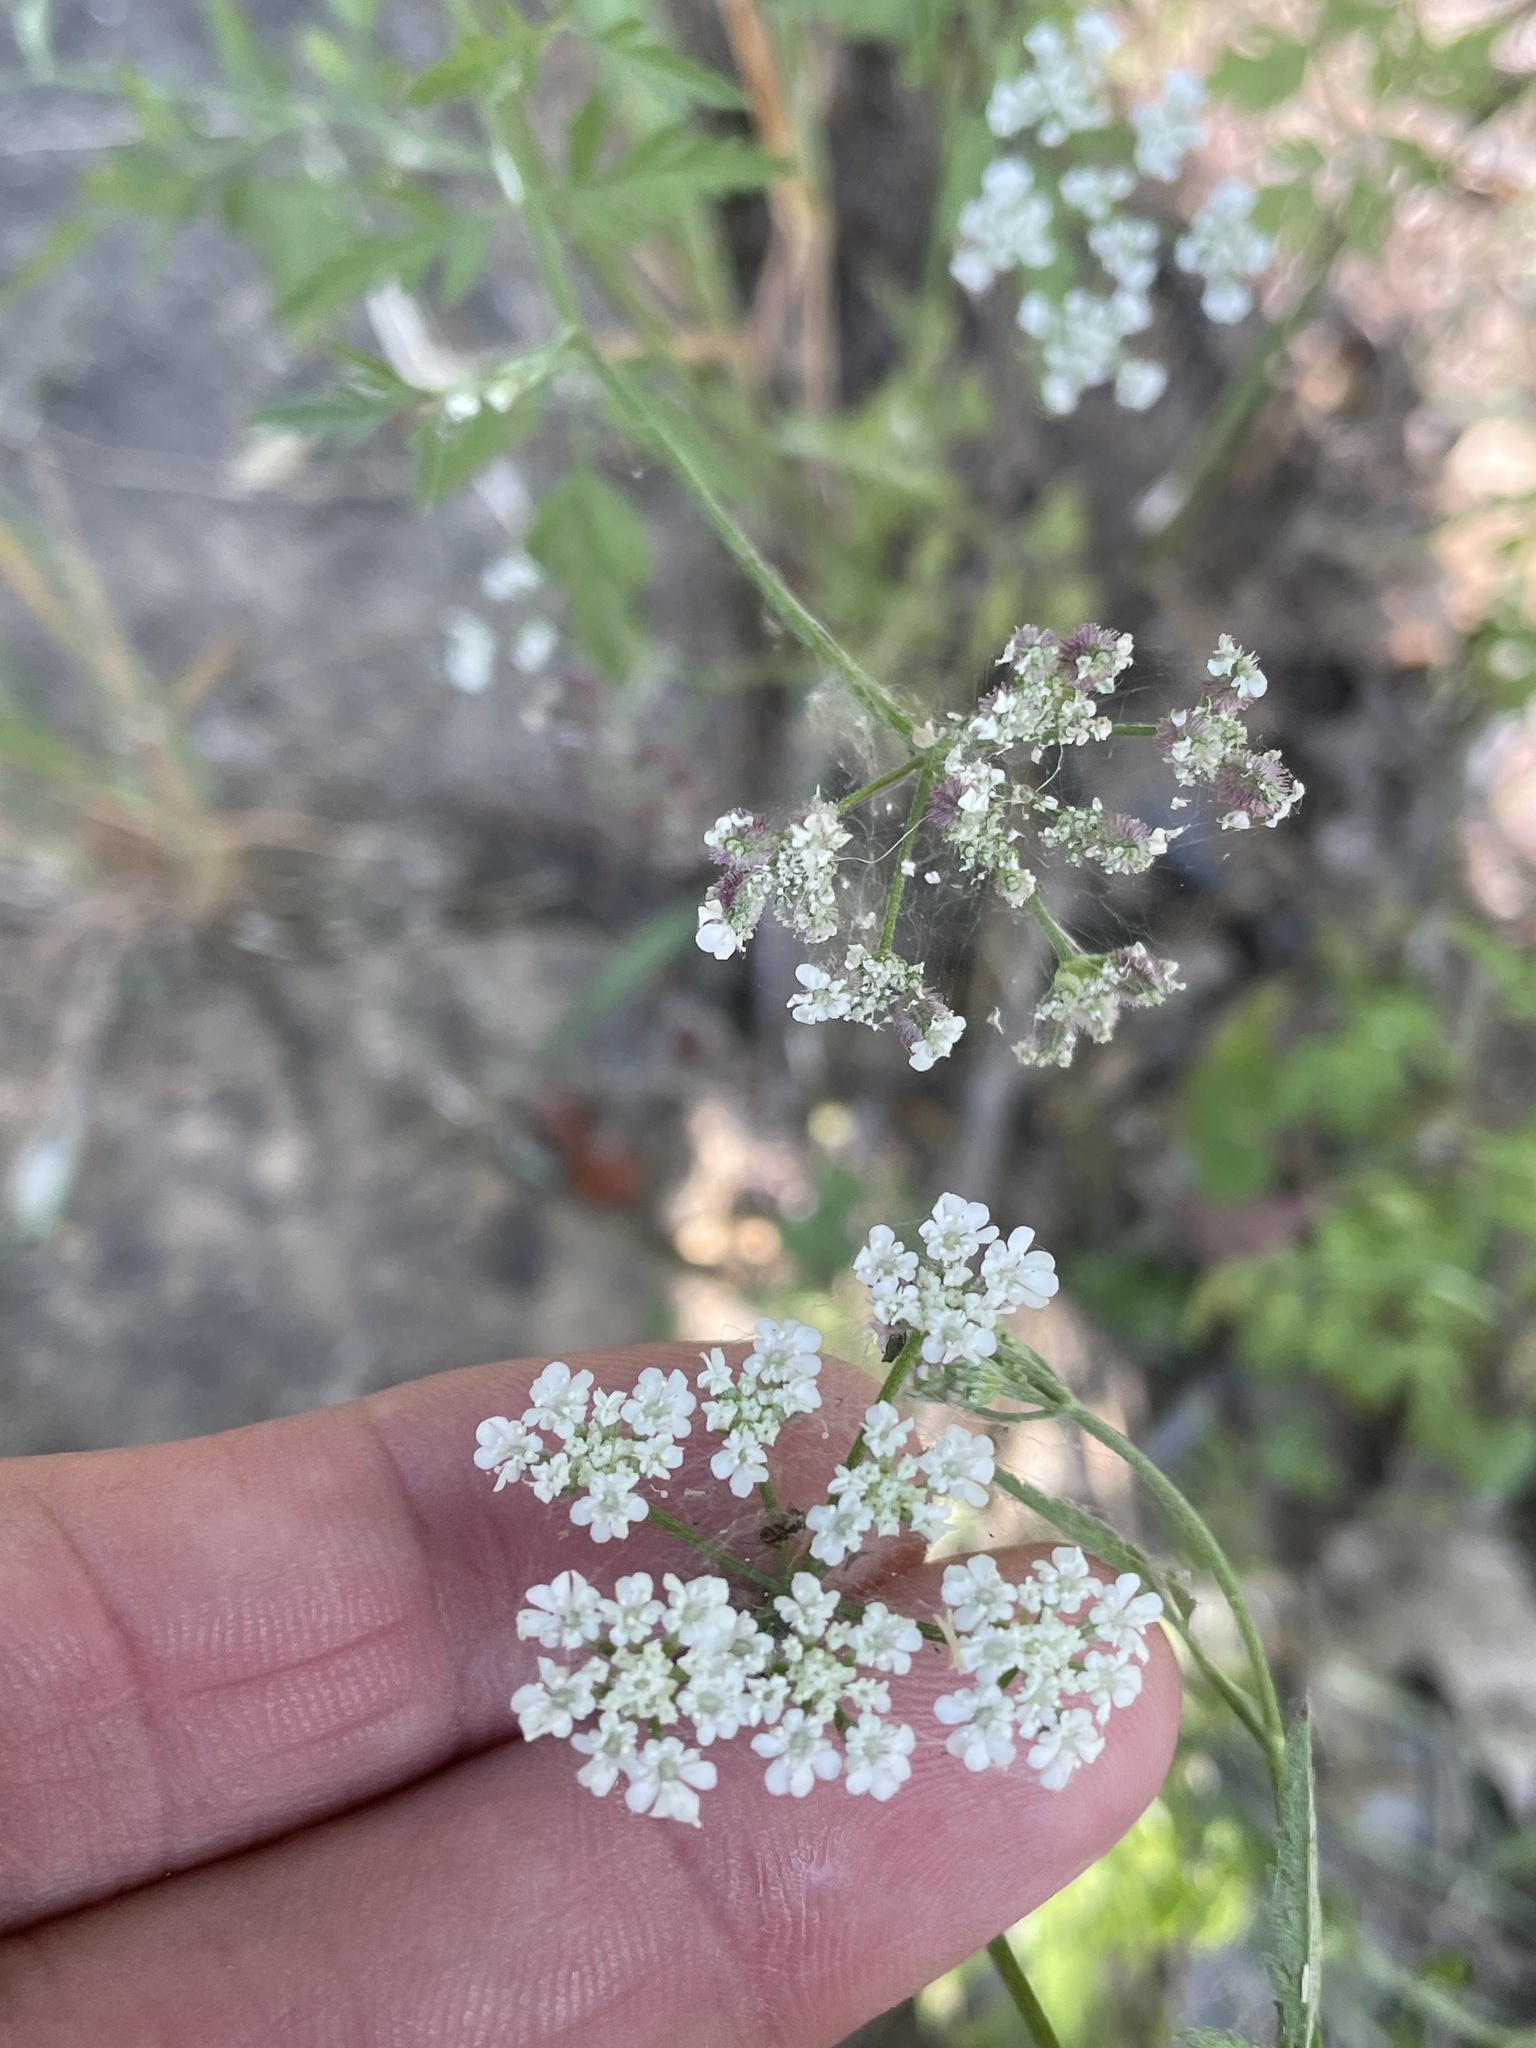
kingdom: Plantae
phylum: Tracheophyta
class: Magnoliopsida
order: Apiales
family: Apiaceae
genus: Torilis
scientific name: Torilis arvensis
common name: Spreading hedge-parsley
